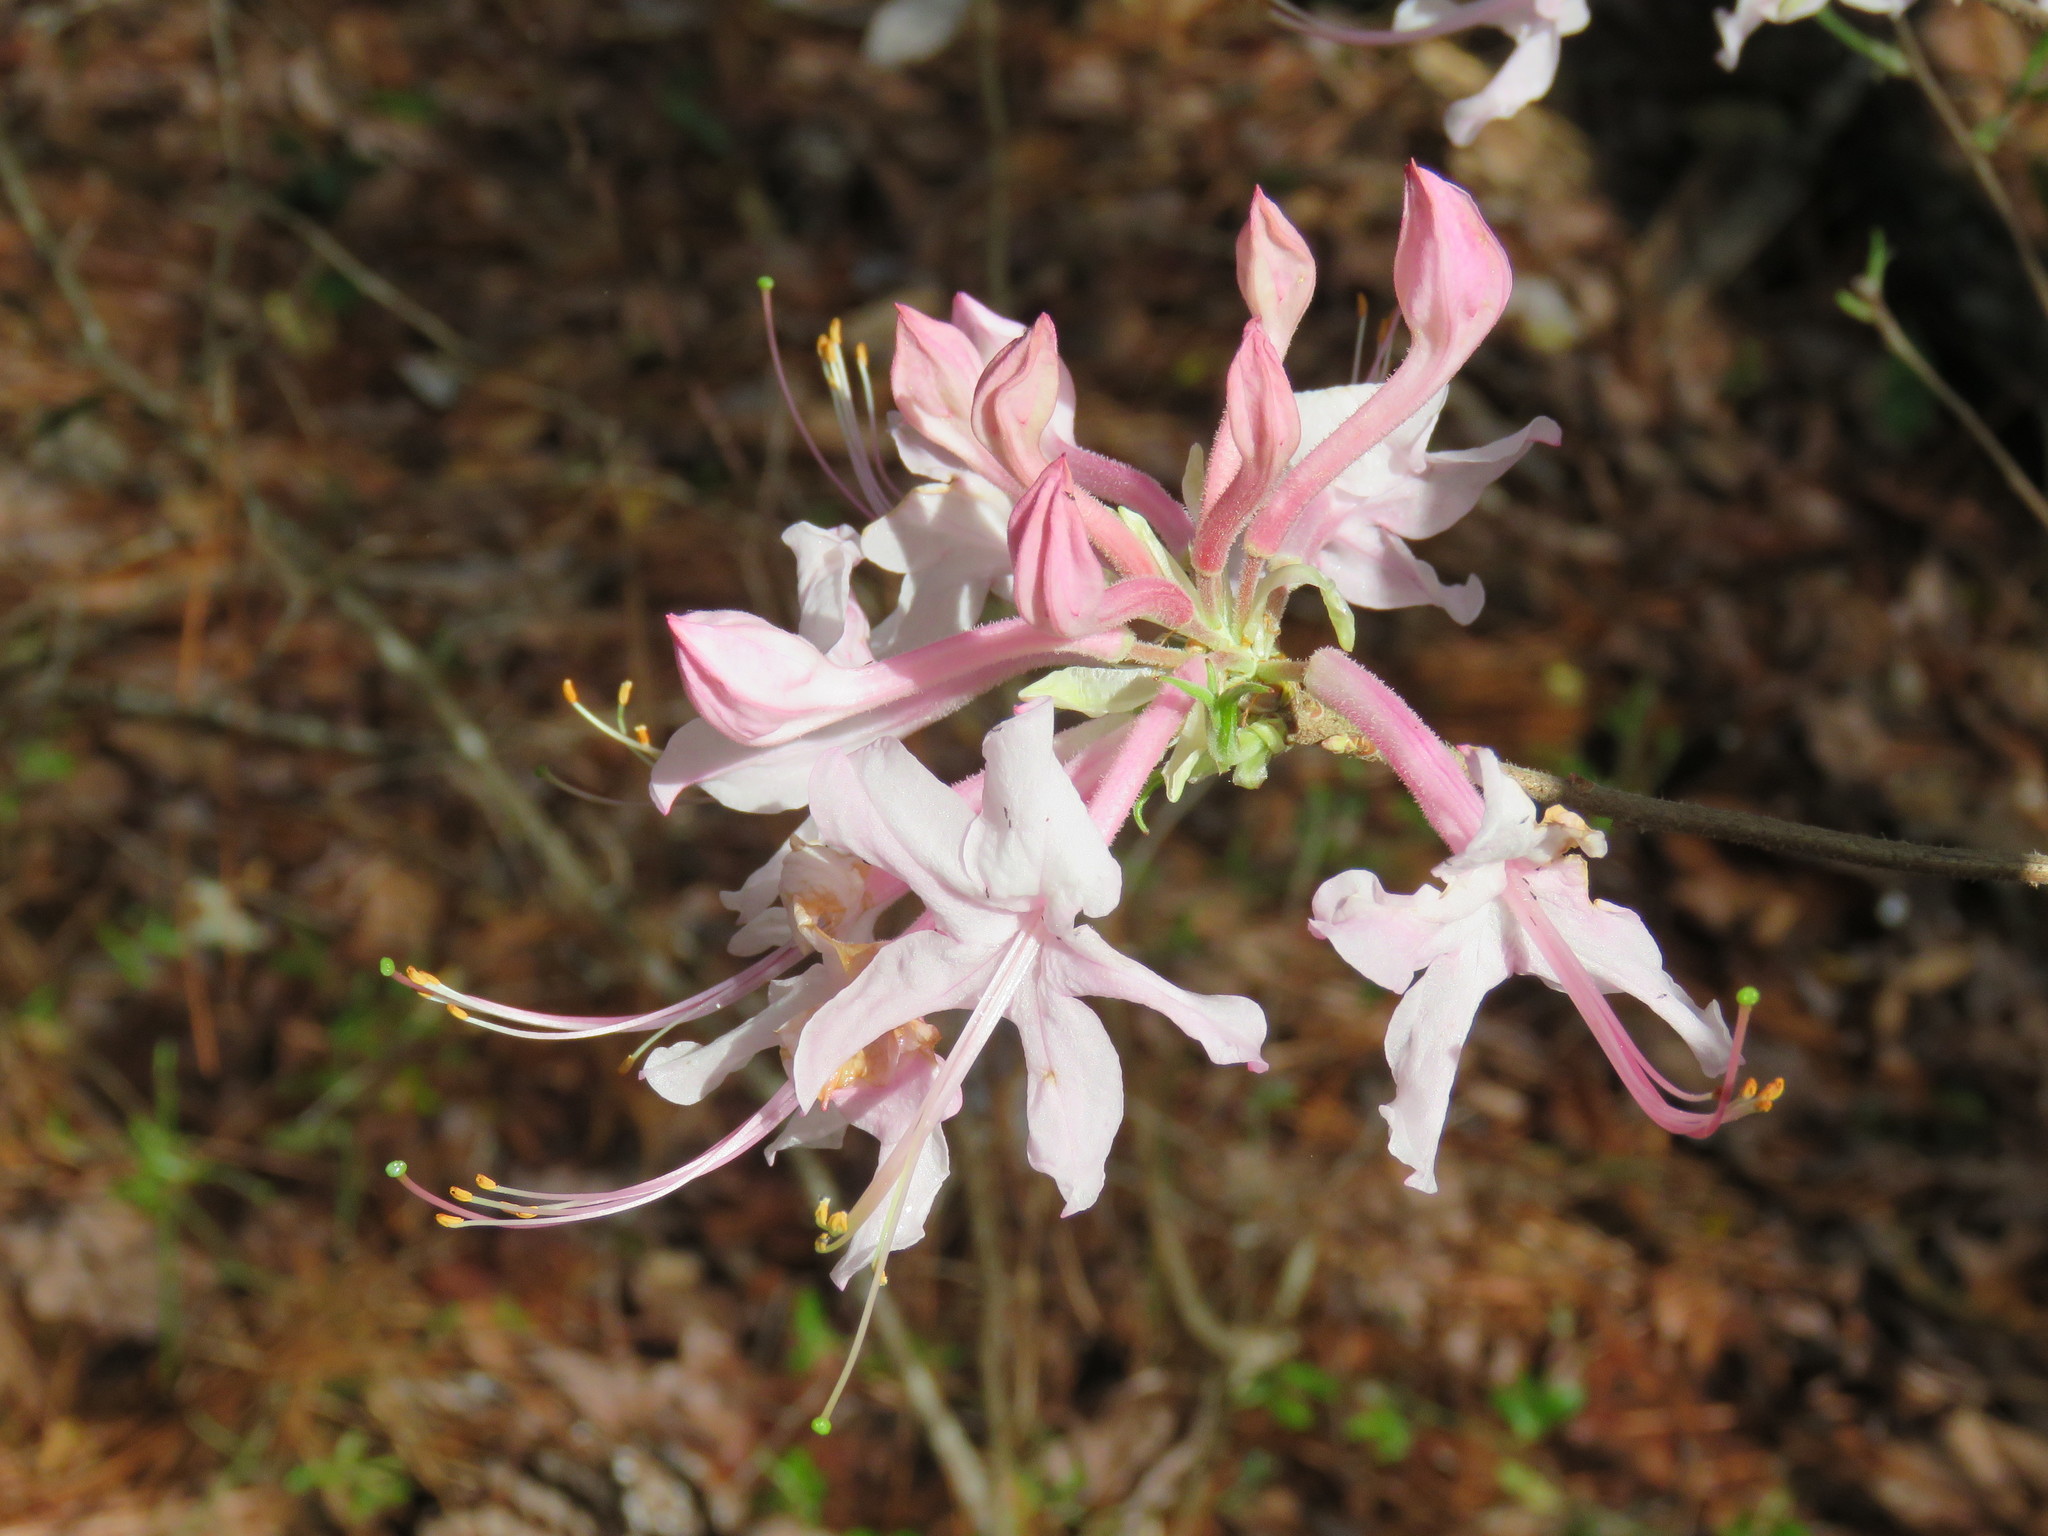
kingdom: Plantae
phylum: Tracheophyta
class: Magnoliopsida
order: Ericales
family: Ericaceae
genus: Rhododendron
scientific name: Rhododendron canescens
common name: Mountain azalea
